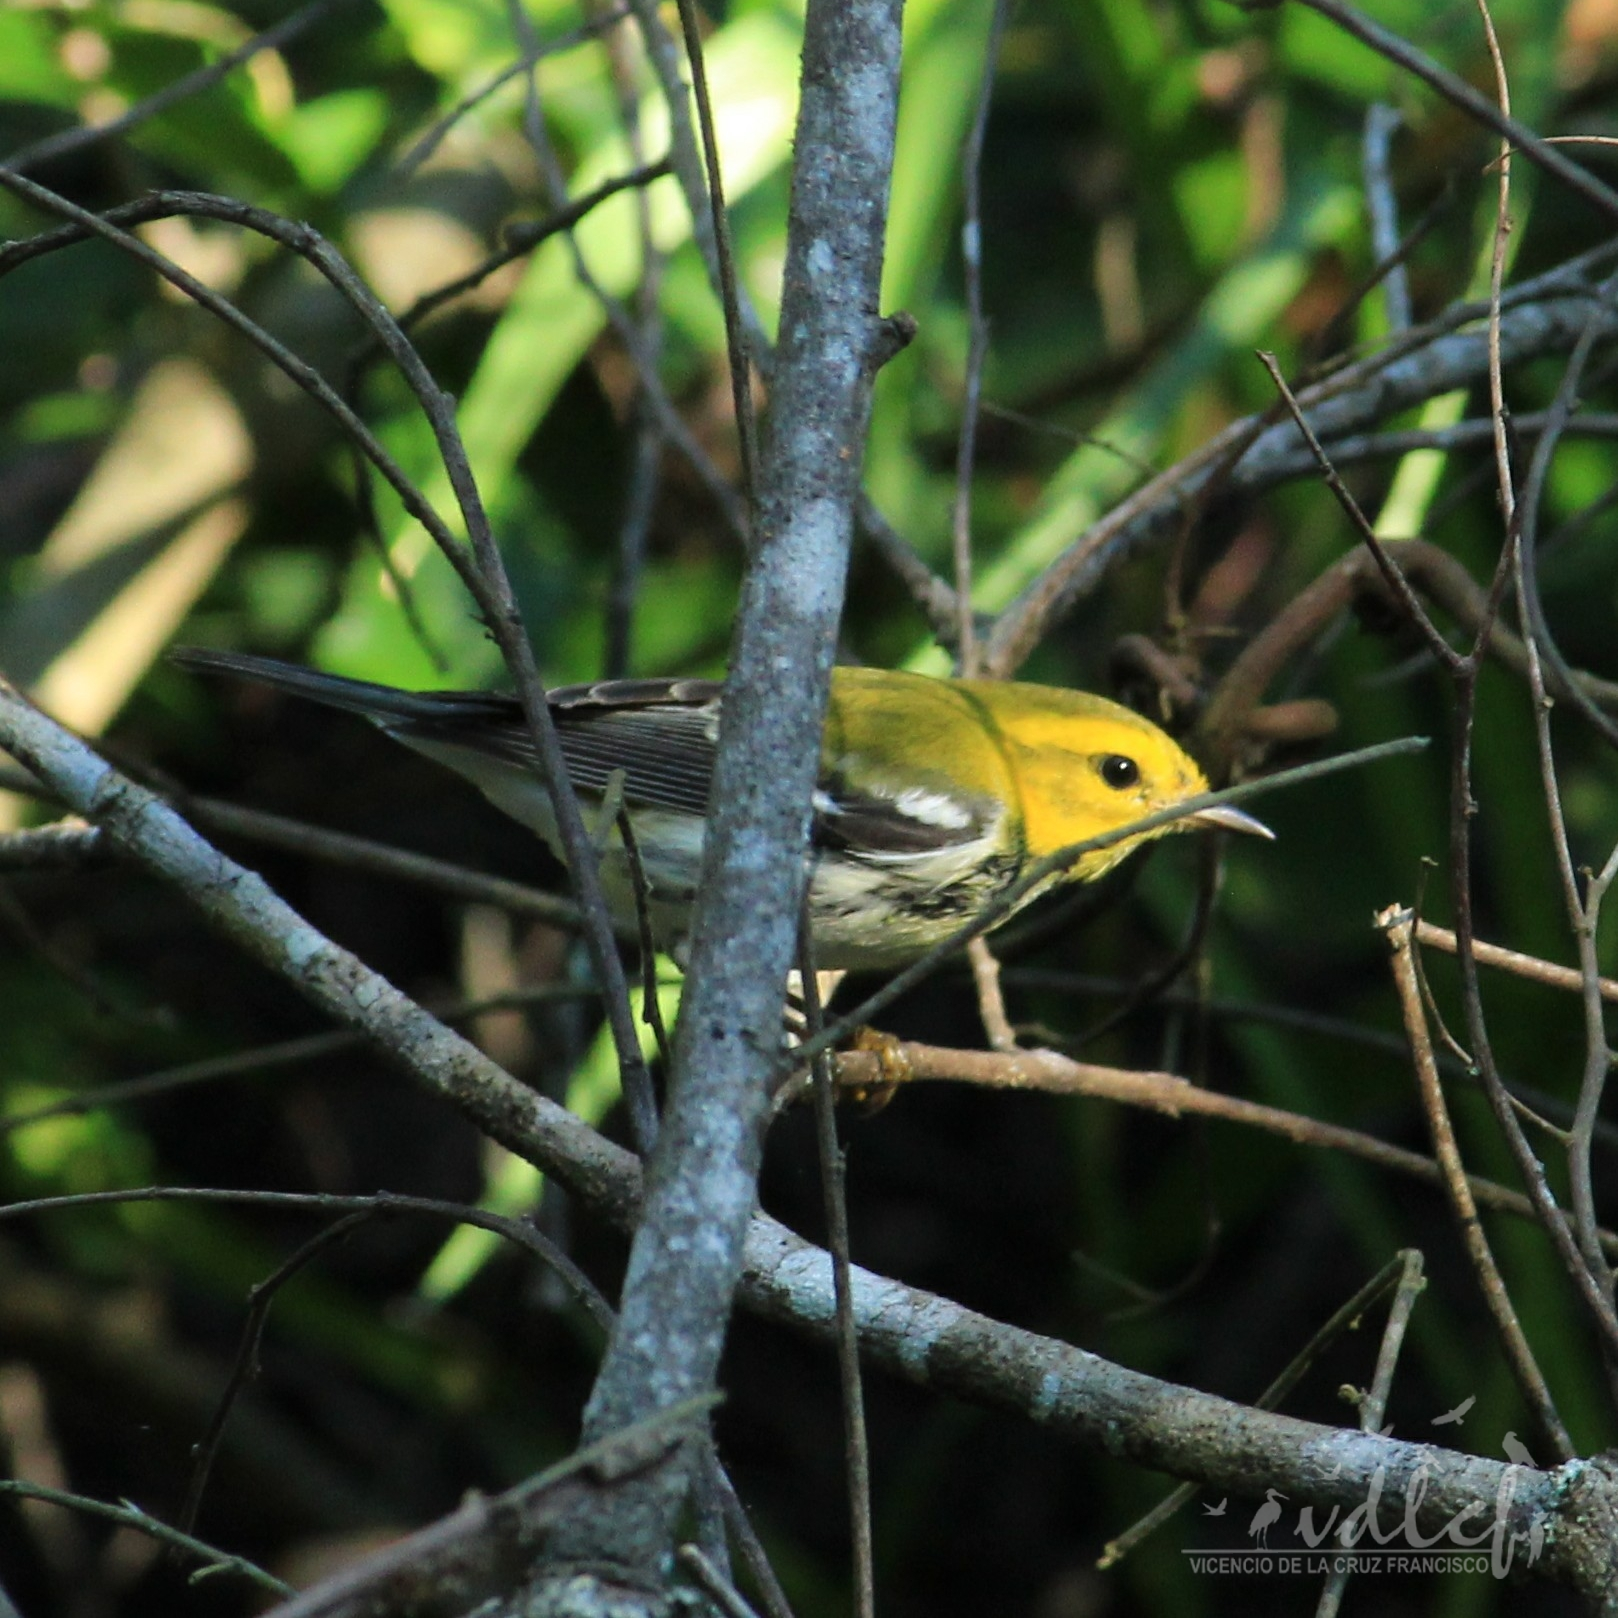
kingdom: Animalia
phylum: Chordata
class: Aves
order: Passeriformes
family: Parulidae
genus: Setophaga
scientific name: Setophaga virens
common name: Black-throated green warbler
